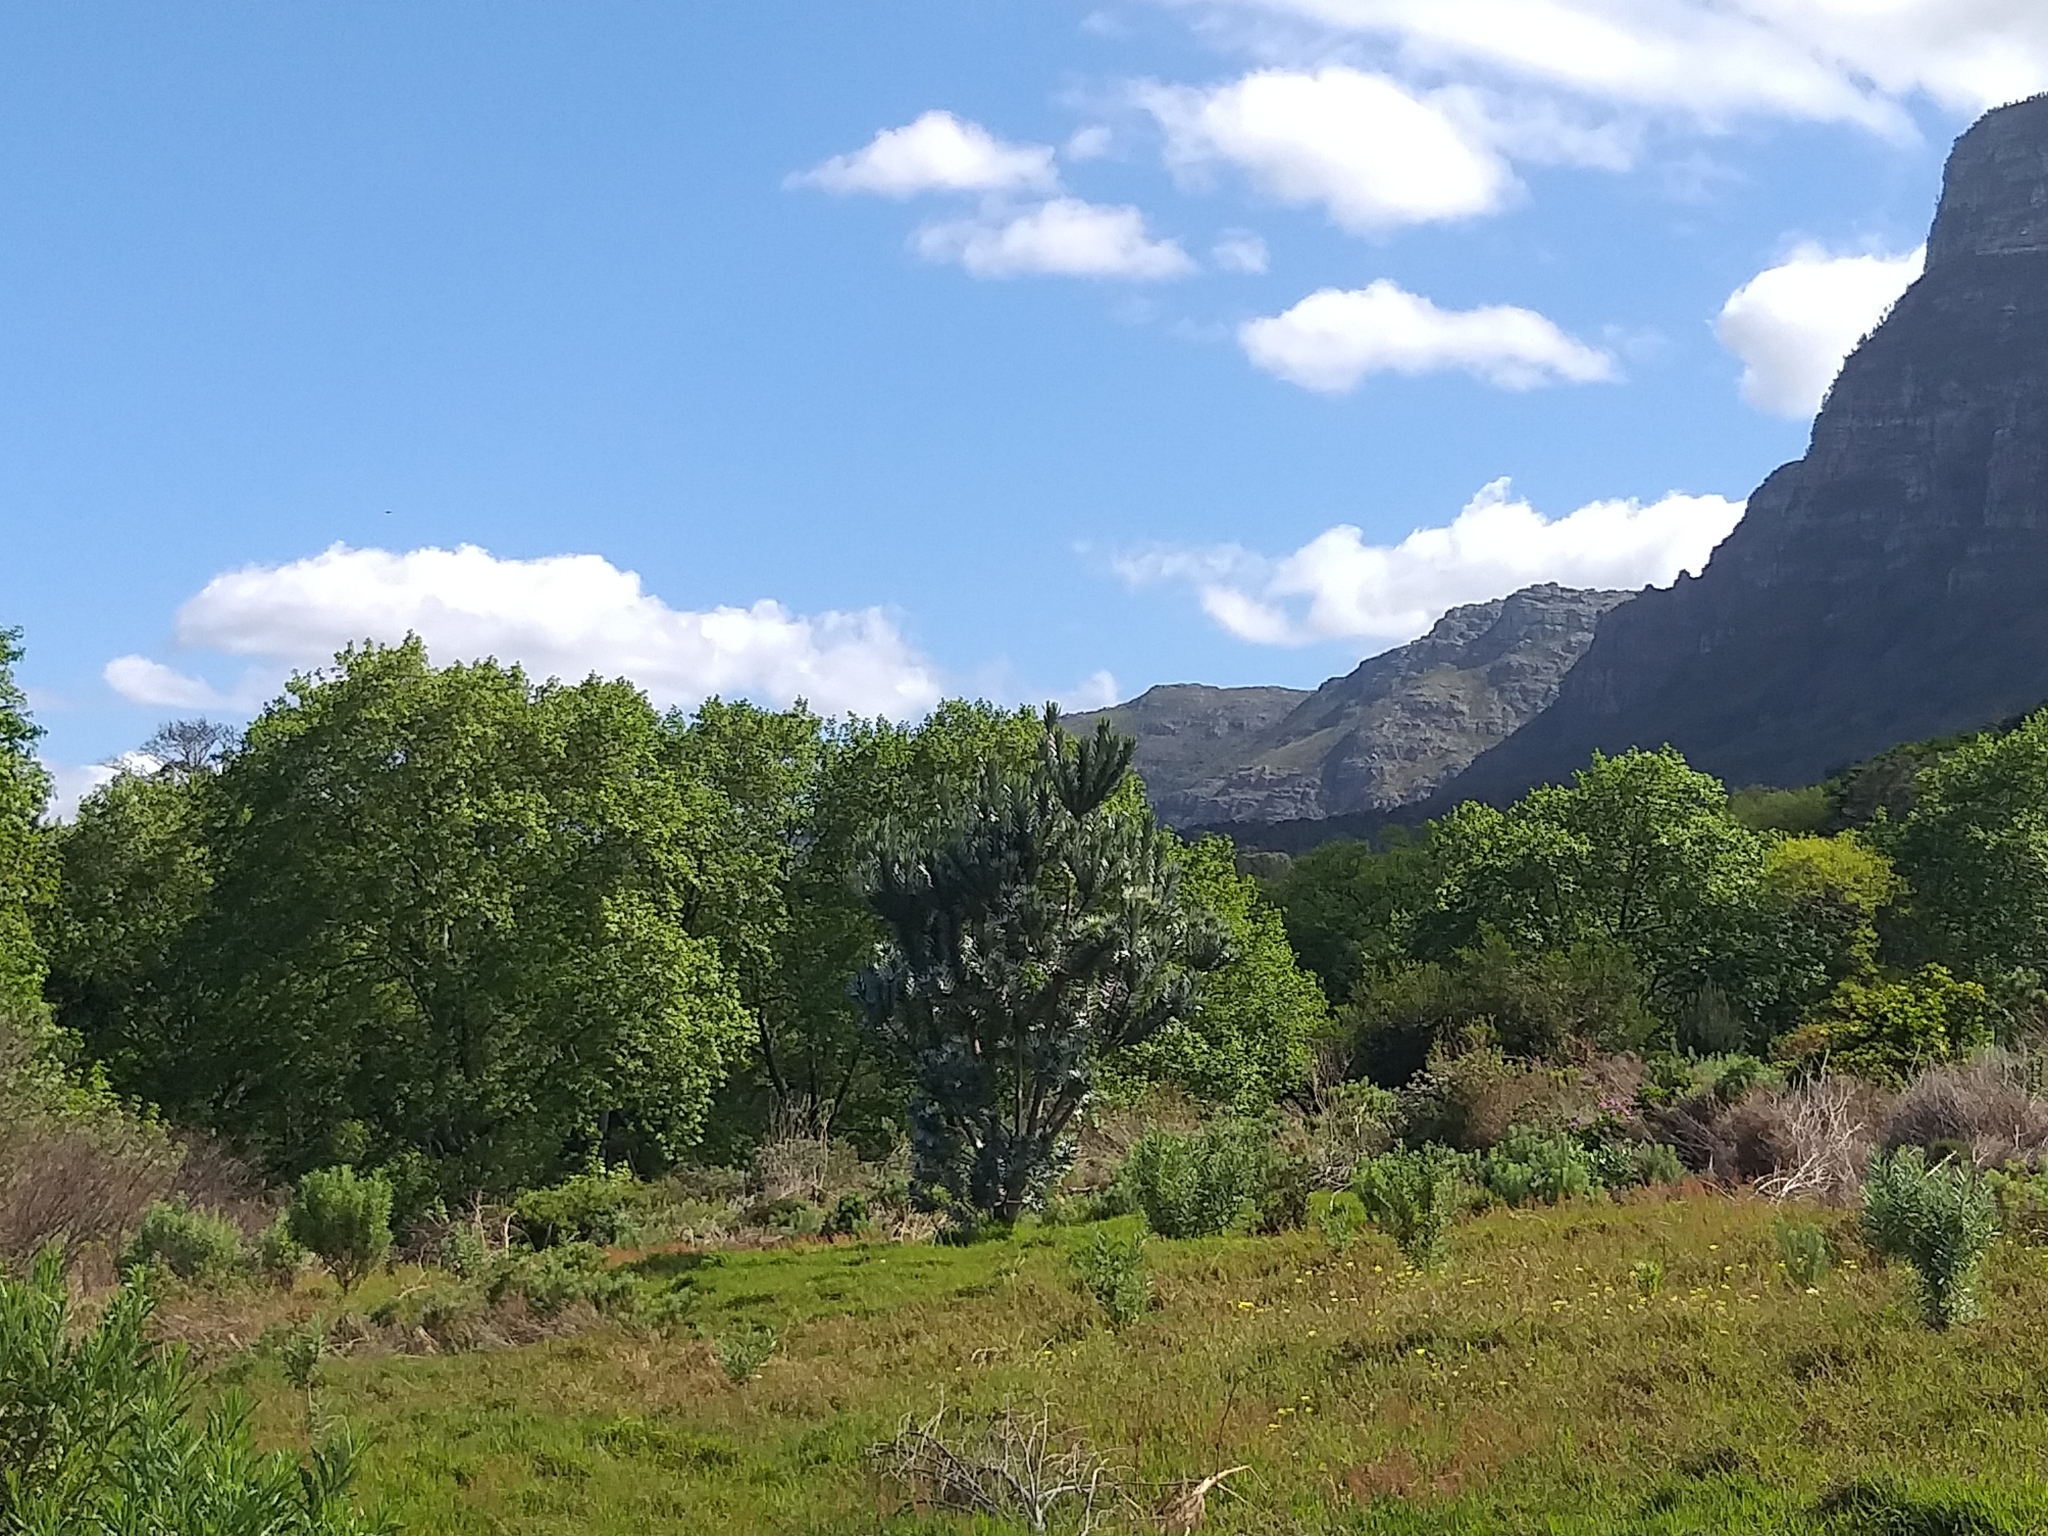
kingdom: Plantae
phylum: Tracheophyta
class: Magnoliopsida
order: Proteales
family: Proteaceae
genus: Leucadendron
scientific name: Leucadendron argenteum
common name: Cape silver tree
